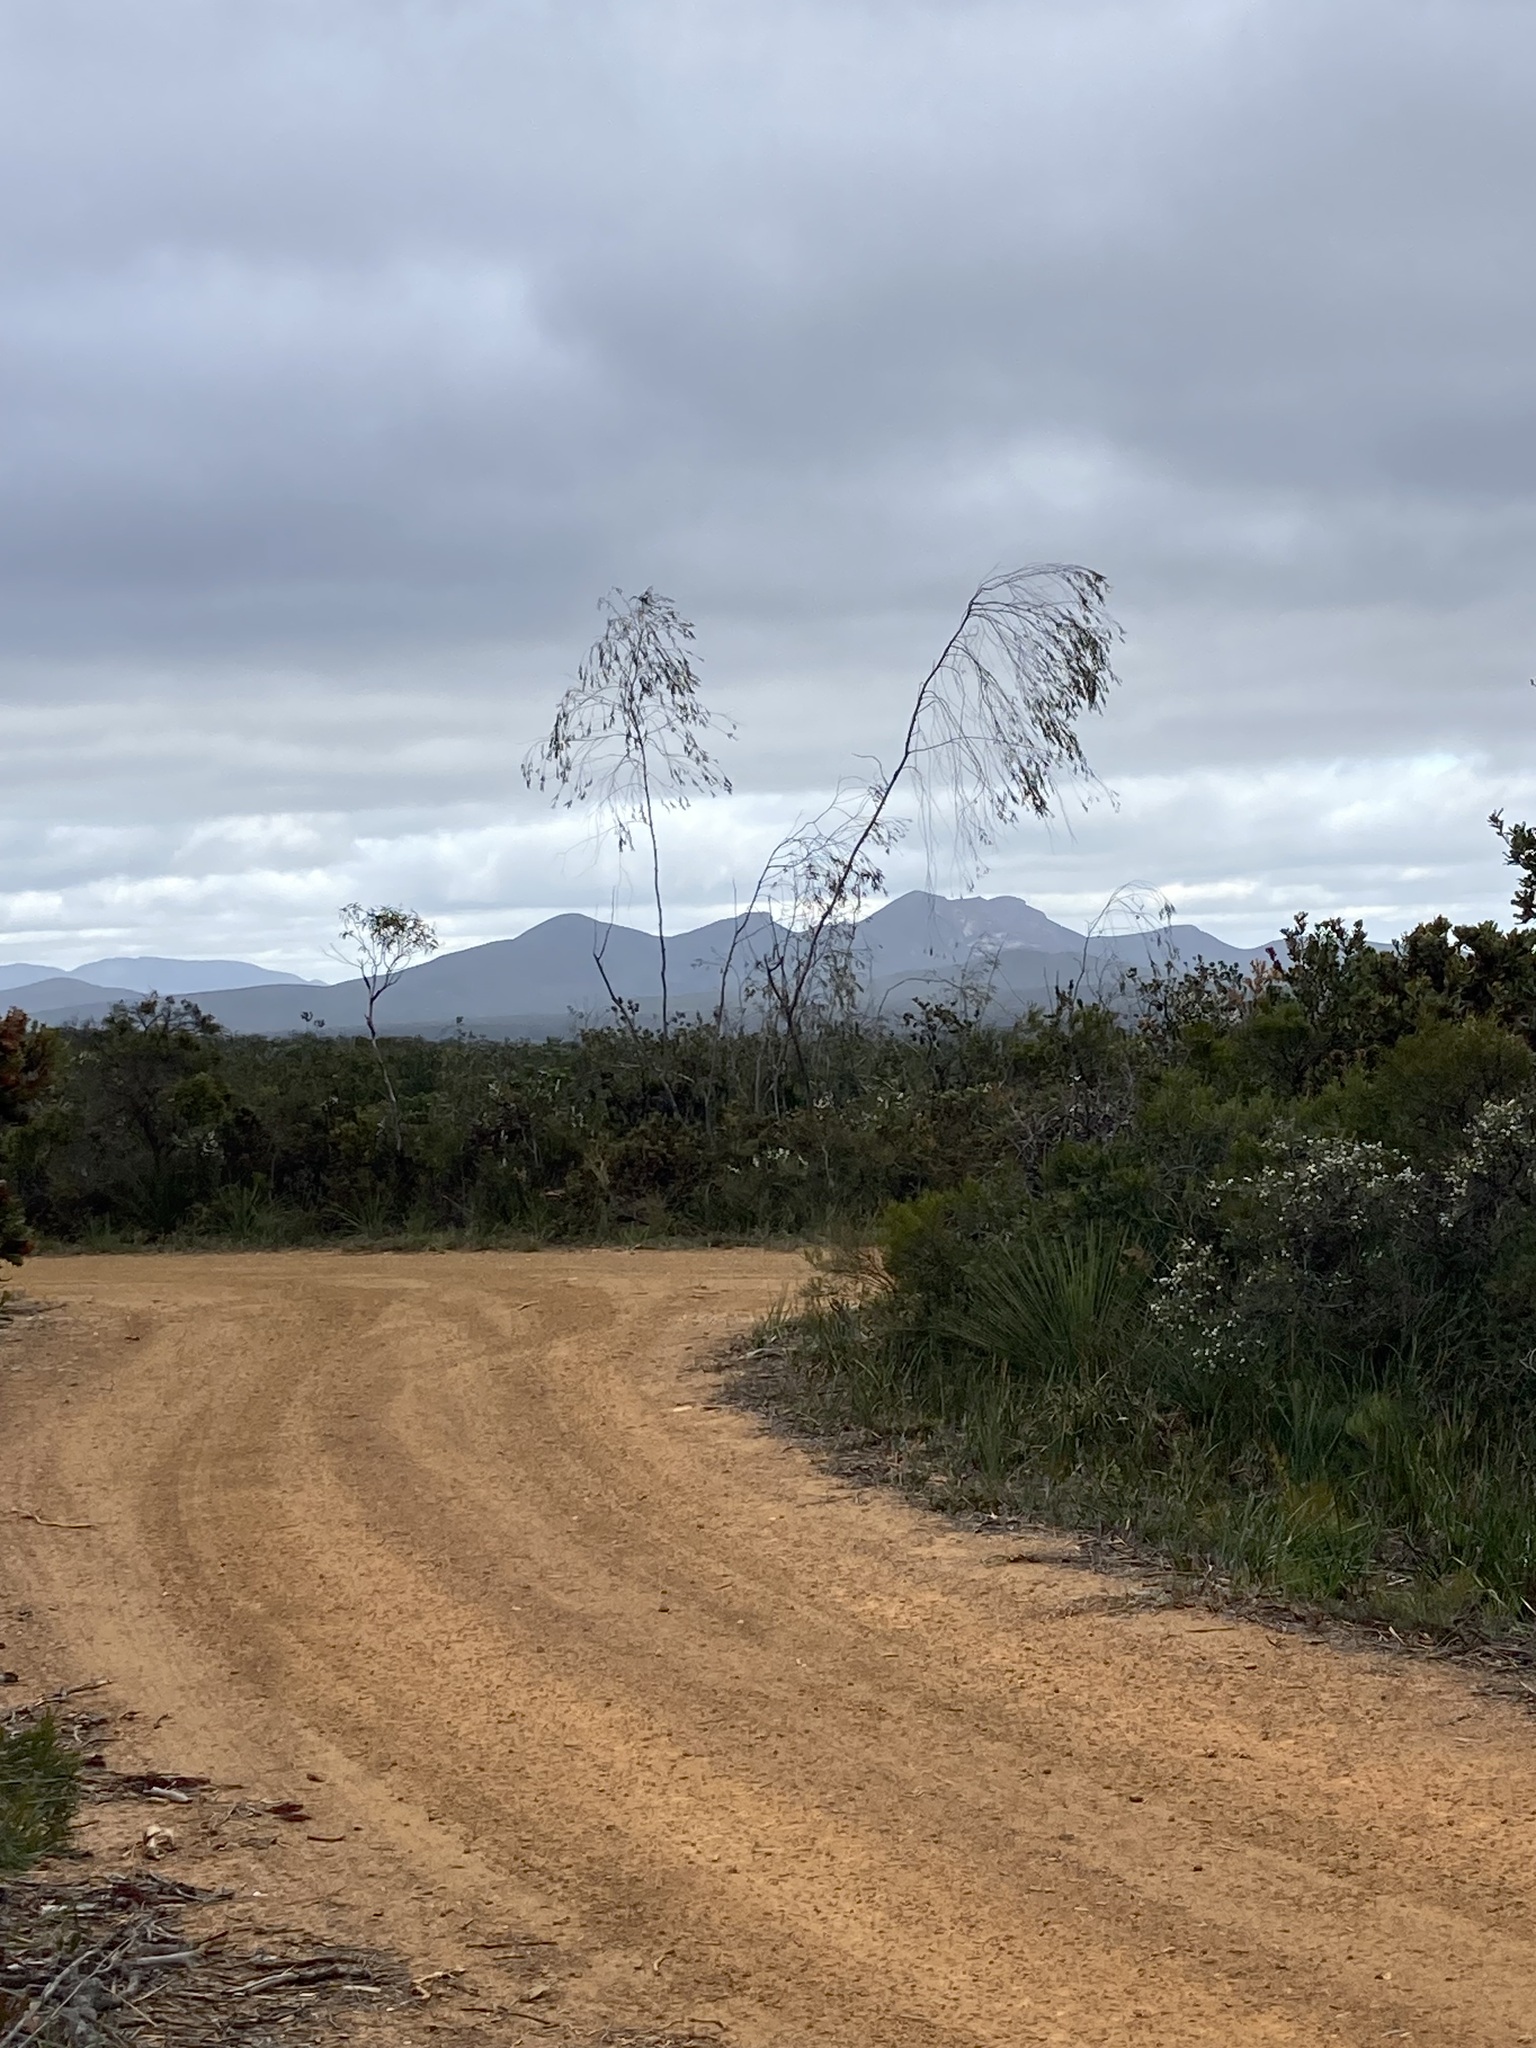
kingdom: Plantae
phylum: Tracheophyta
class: Magnoliopsida
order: Myrtales
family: Myrtaceae
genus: Eucalyptus
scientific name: Eucalyptus sepulcralis
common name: Weeping mallee
